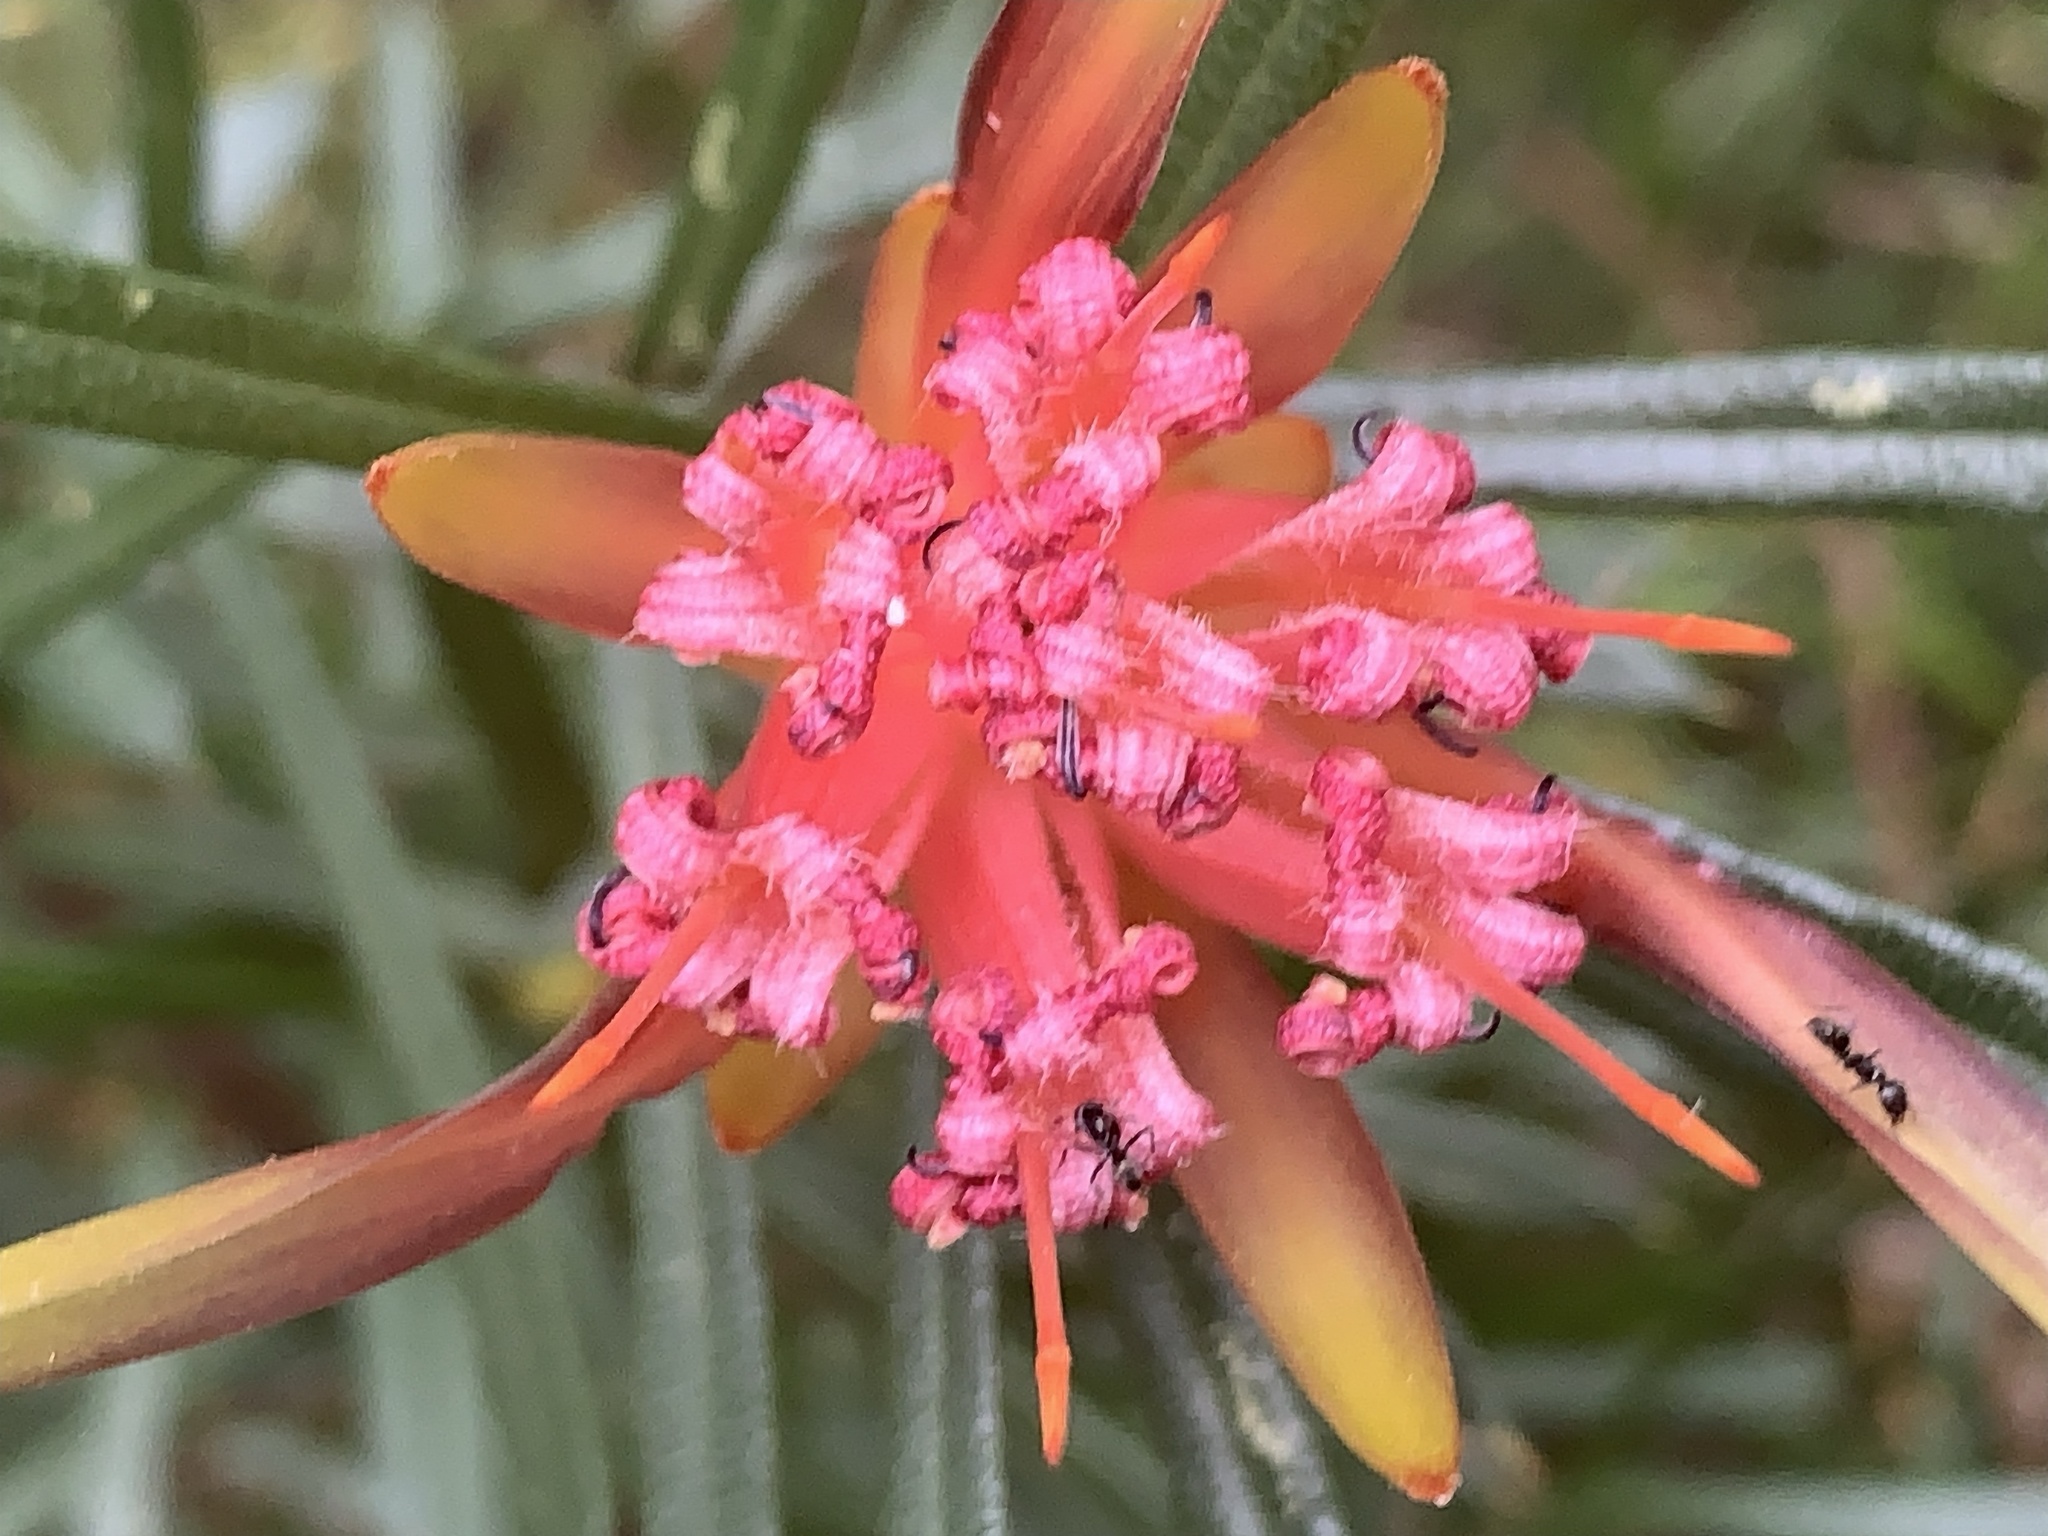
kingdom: Plantae
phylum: Tracheophyta
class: Magnoliopsida
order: Proteales
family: Proteaceae
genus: Lambertia
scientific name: Lambertia formosa
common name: Mountain-devil
